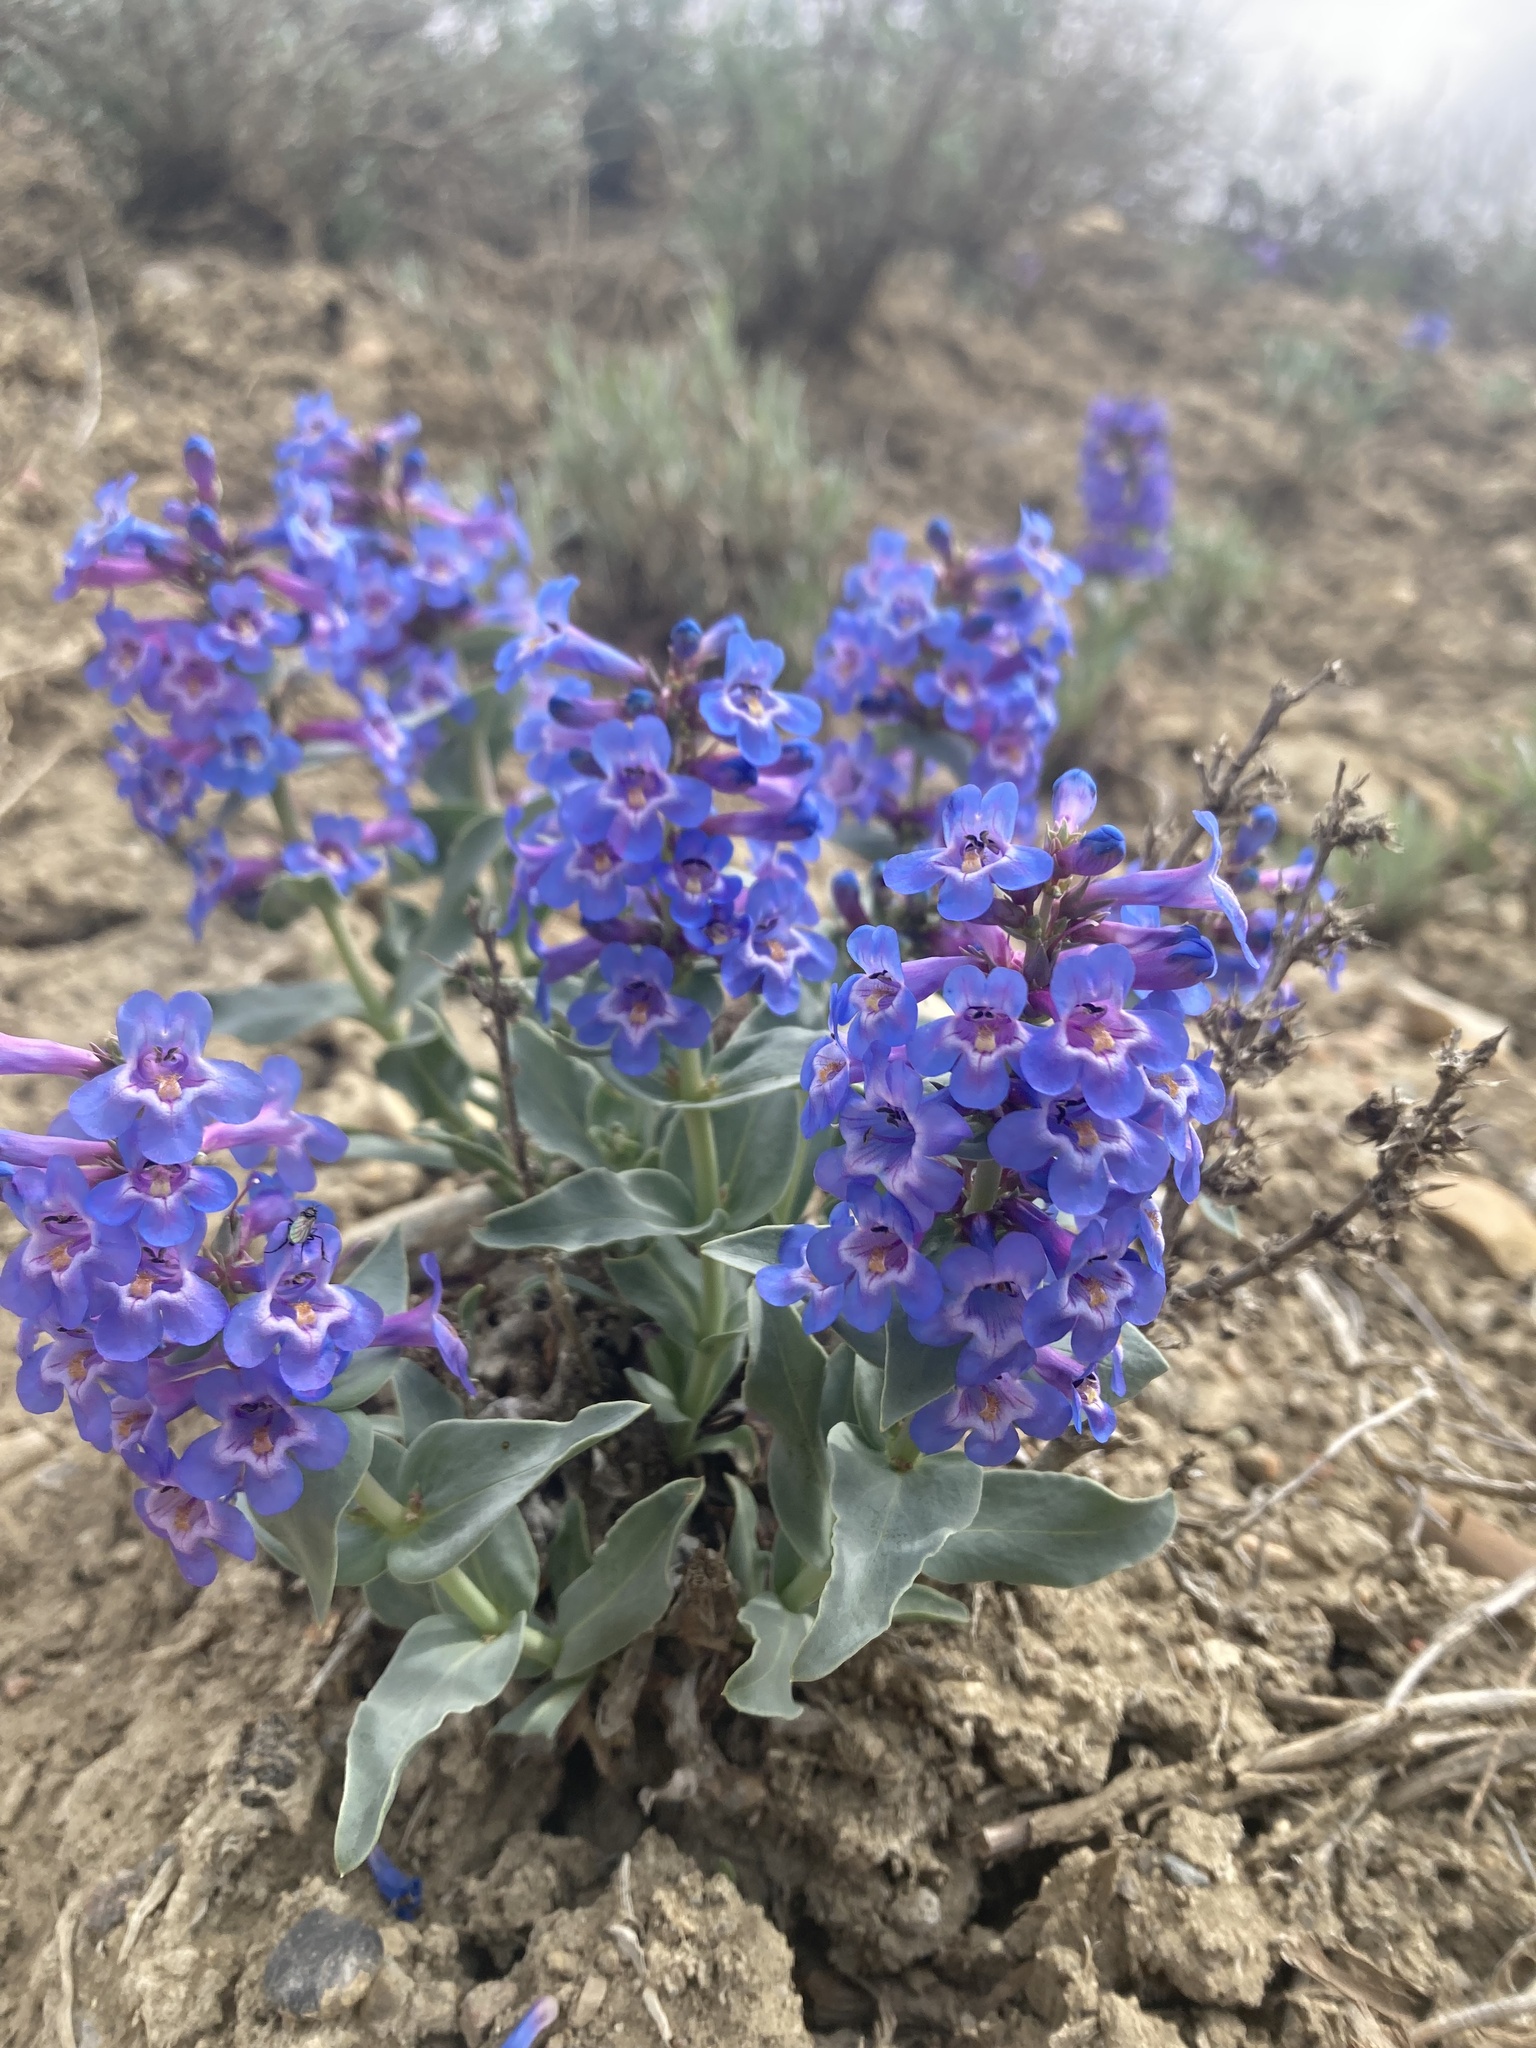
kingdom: Plantae
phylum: Tracheophyta
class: Magnoliopsida
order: Lamiales
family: Plantaginaceae
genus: Penstemon
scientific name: Penstemon nitidus
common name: Shining penstemon
